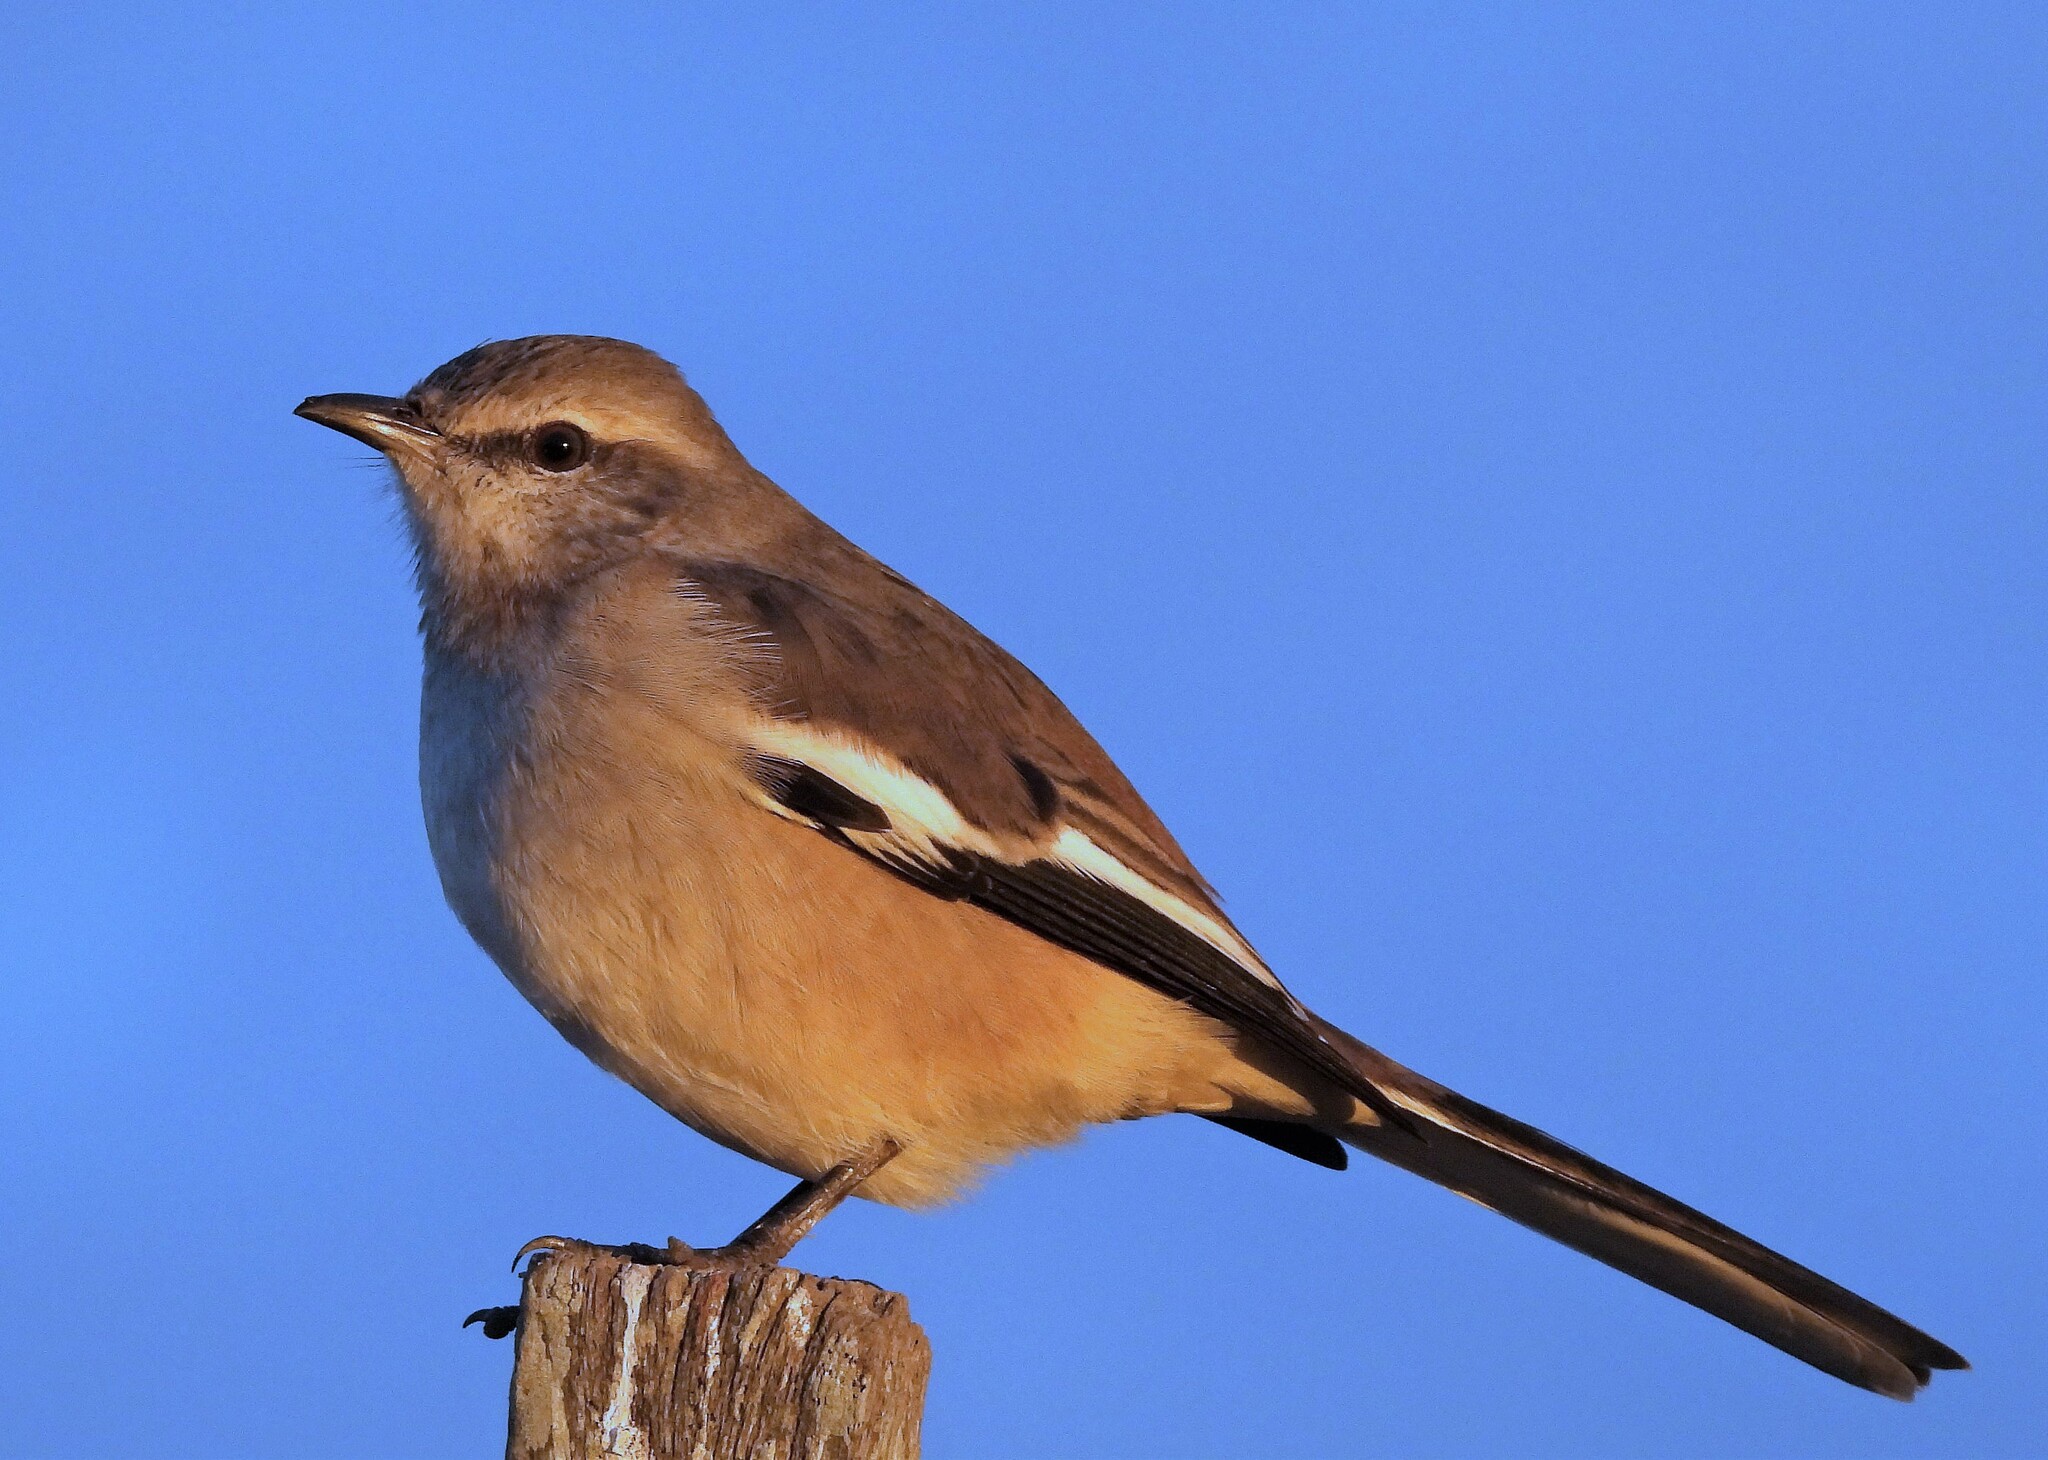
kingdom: Animalia
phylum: Chordata
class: Aves
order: Passeriformes
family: Mimidae
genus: Mimus
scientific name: Mimus triurus
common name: White-banded mockingbird
